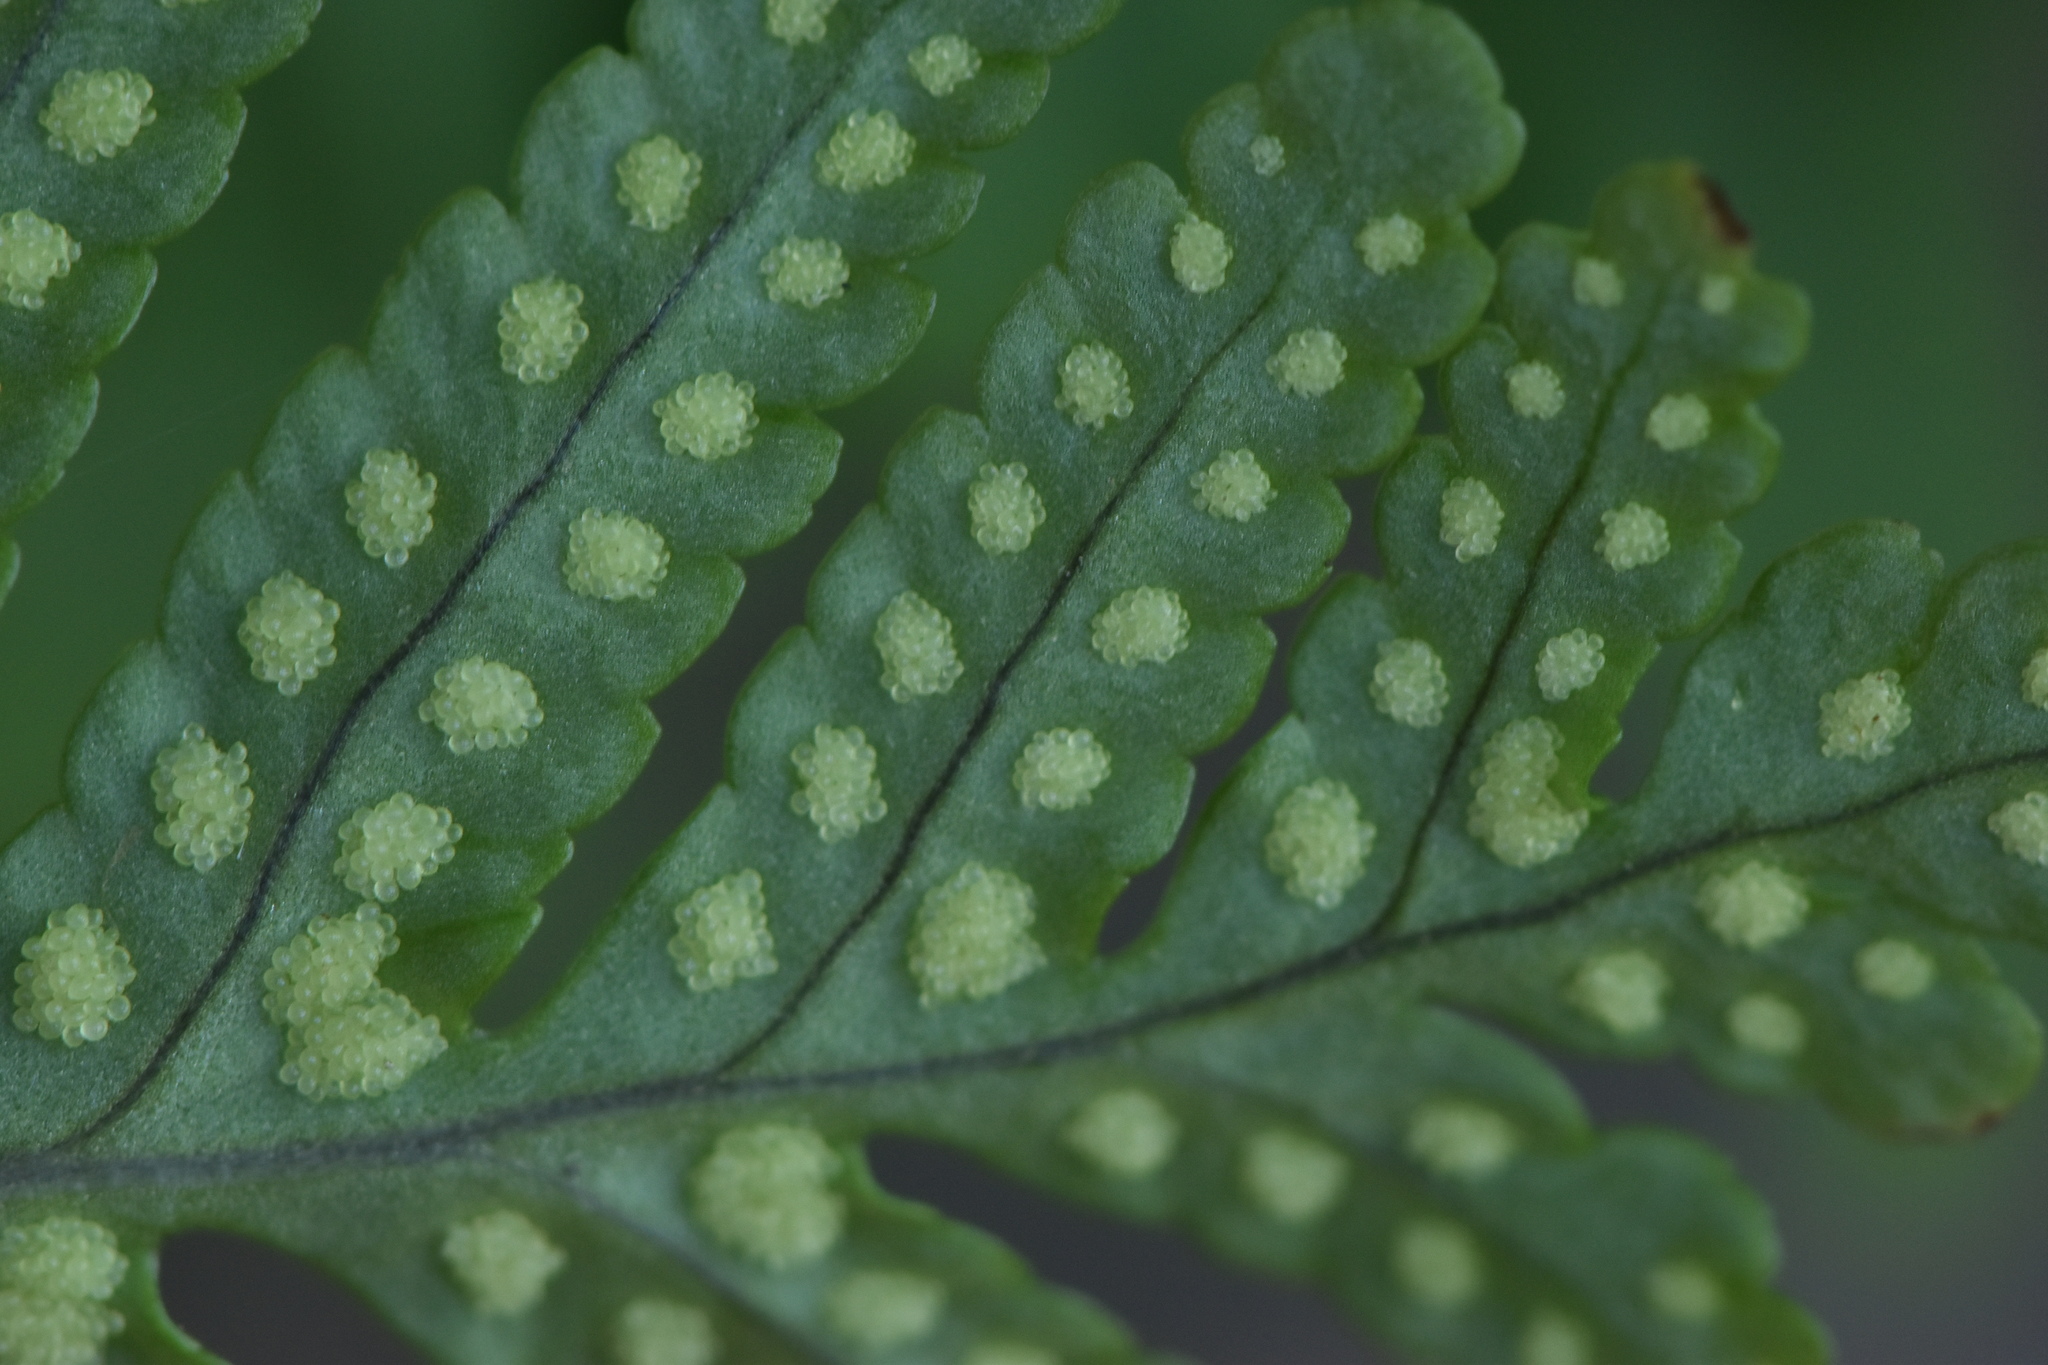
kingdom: Plantae
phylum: Tracheophyta
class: Polypodiopsida
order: Polypodiales
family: Polypodiaceae
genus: Polypodium
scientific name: Polypodium cambricum
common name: Southern polypody
